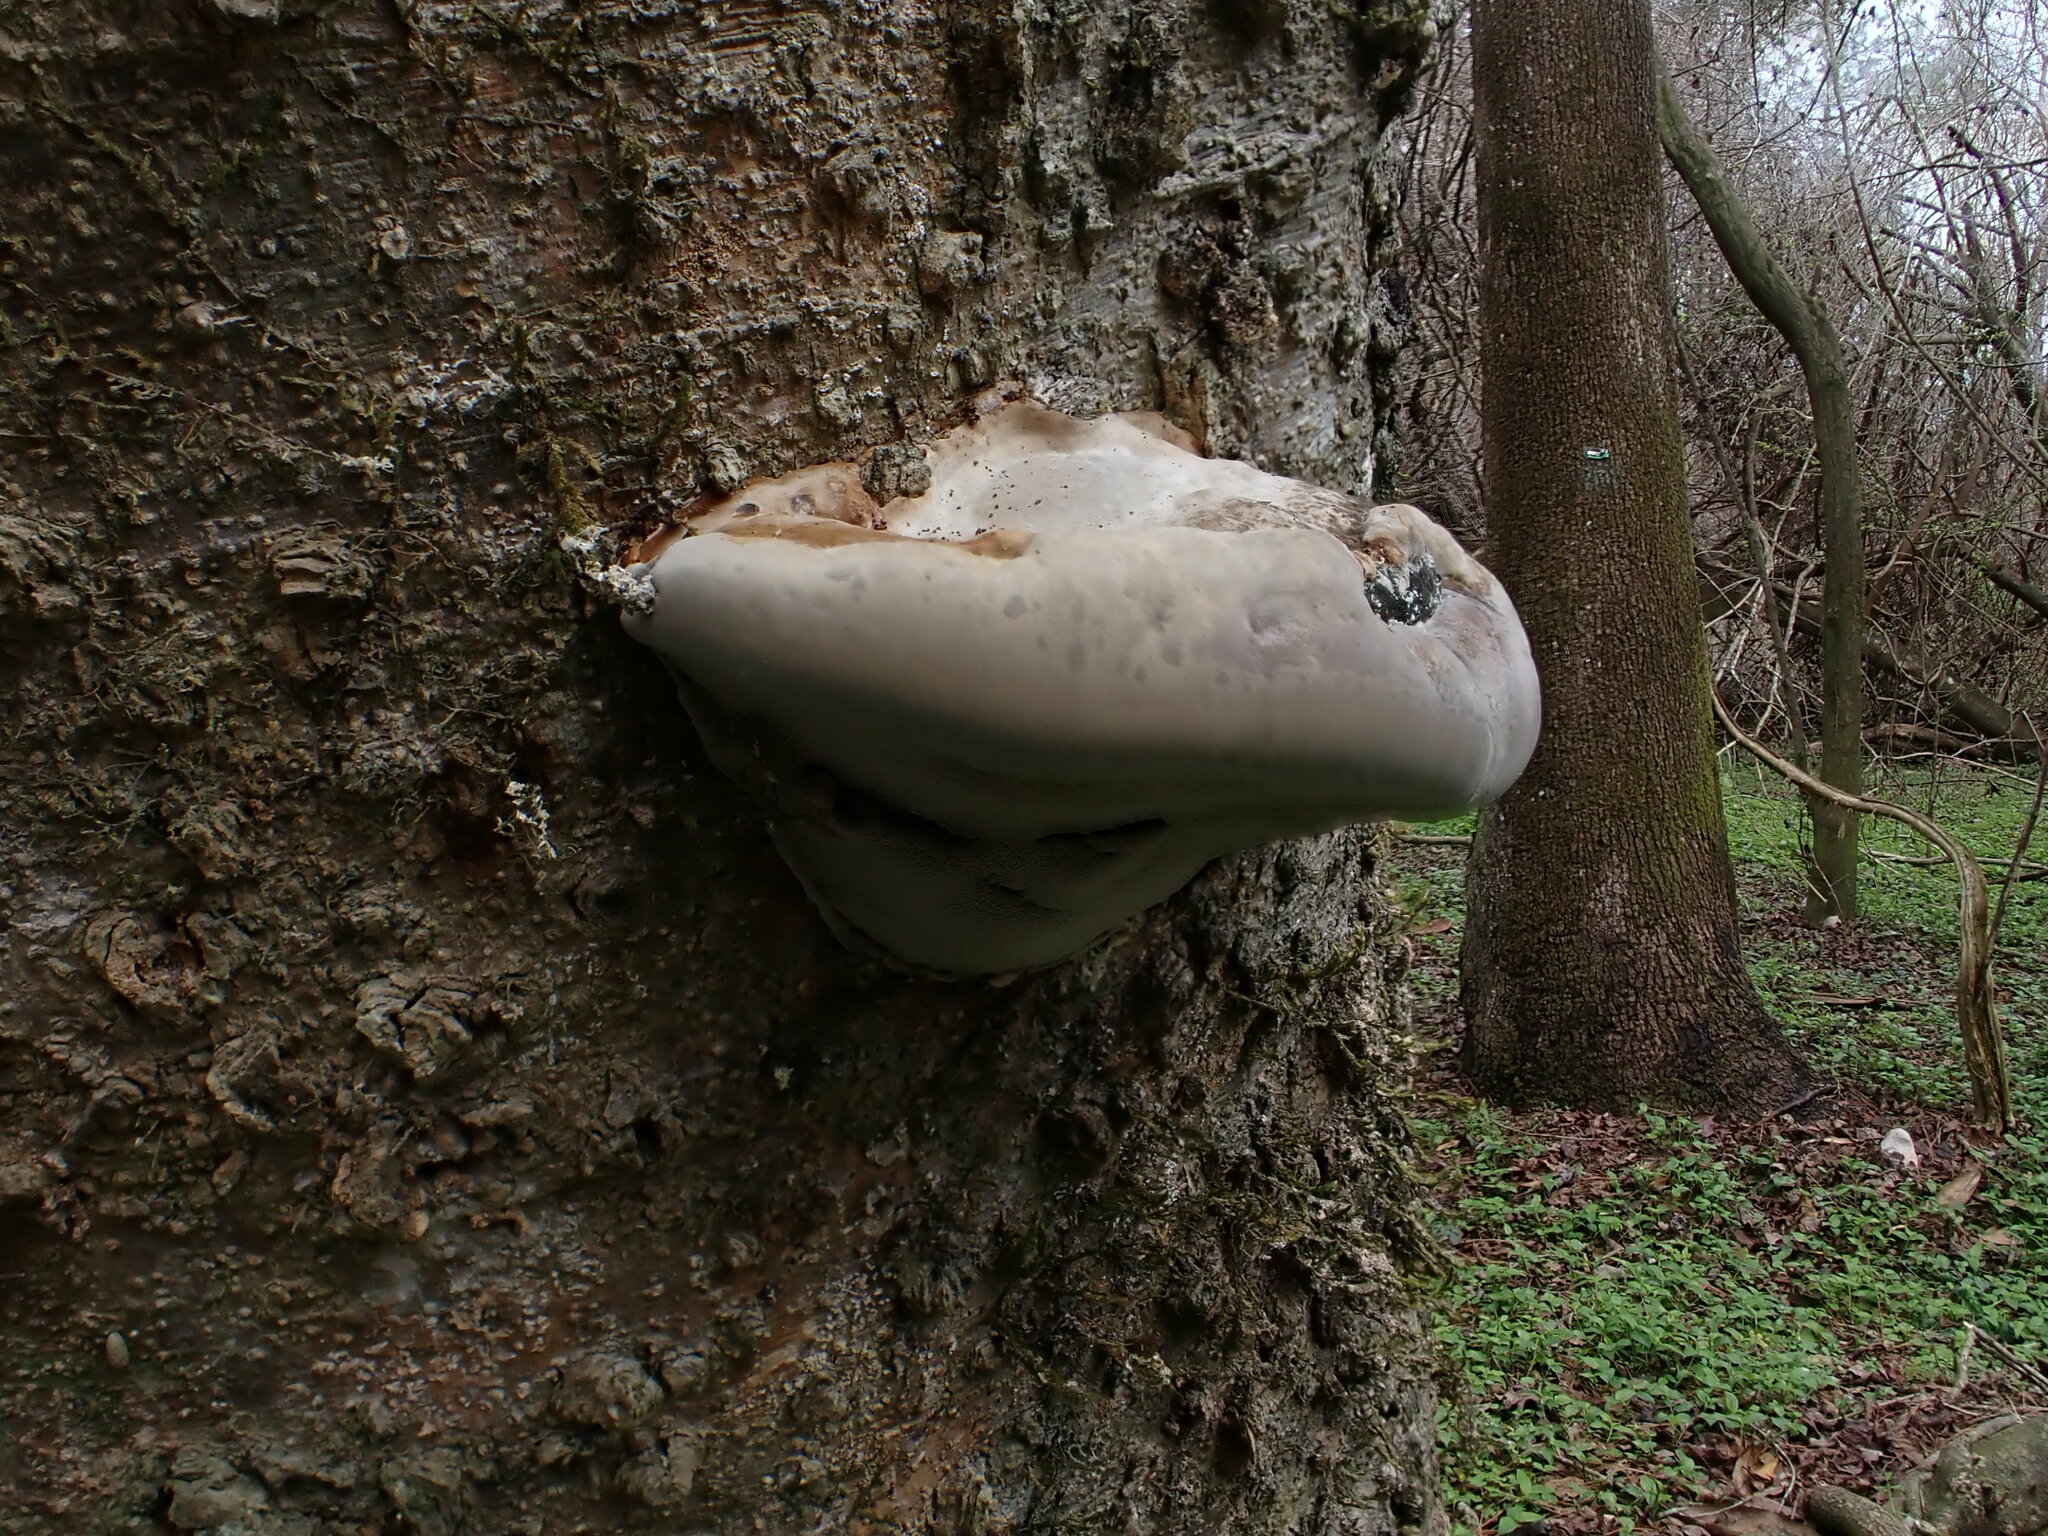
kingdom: Fungi
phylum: Basidiomycota
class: Agaricomycetes
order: Polyporales
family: Polyporaceae
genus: Fomes
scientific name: Fomes fasciatus
